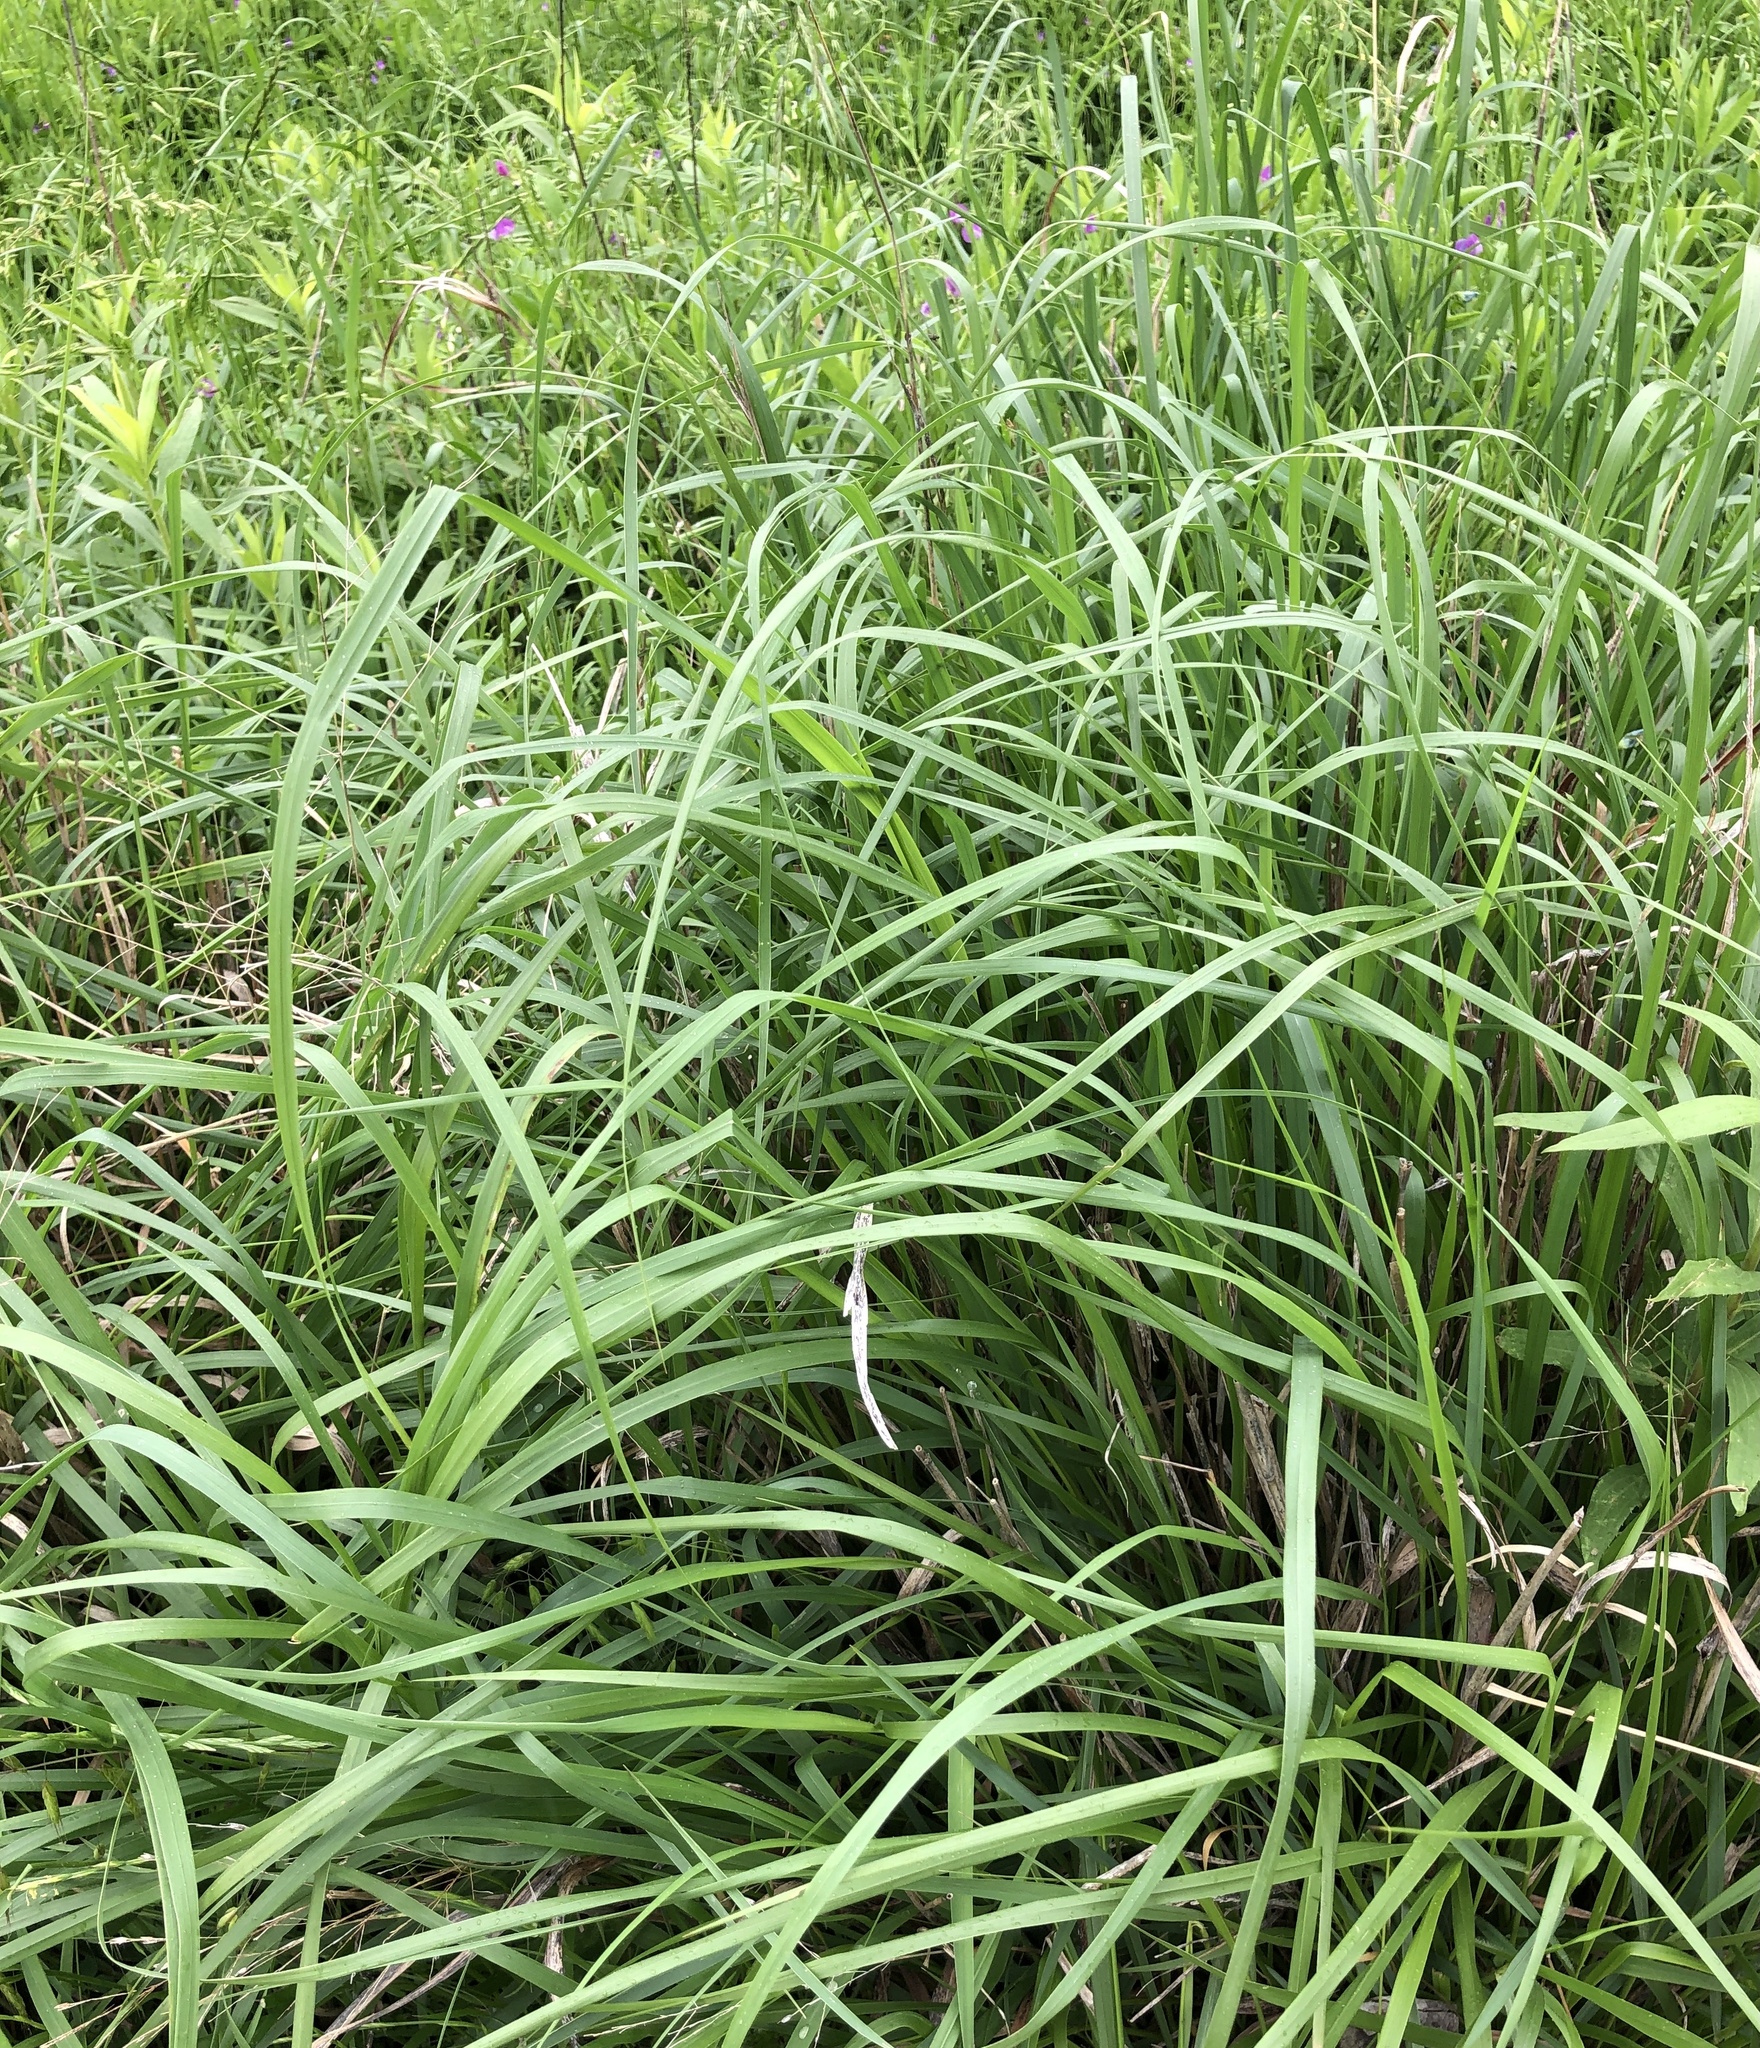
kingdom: Plantae
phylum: Tracheophyta
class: Liliopsida
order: Poales
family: Poaceae
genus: Panicum
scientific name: Panicum virgatum
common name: Switchgrass
